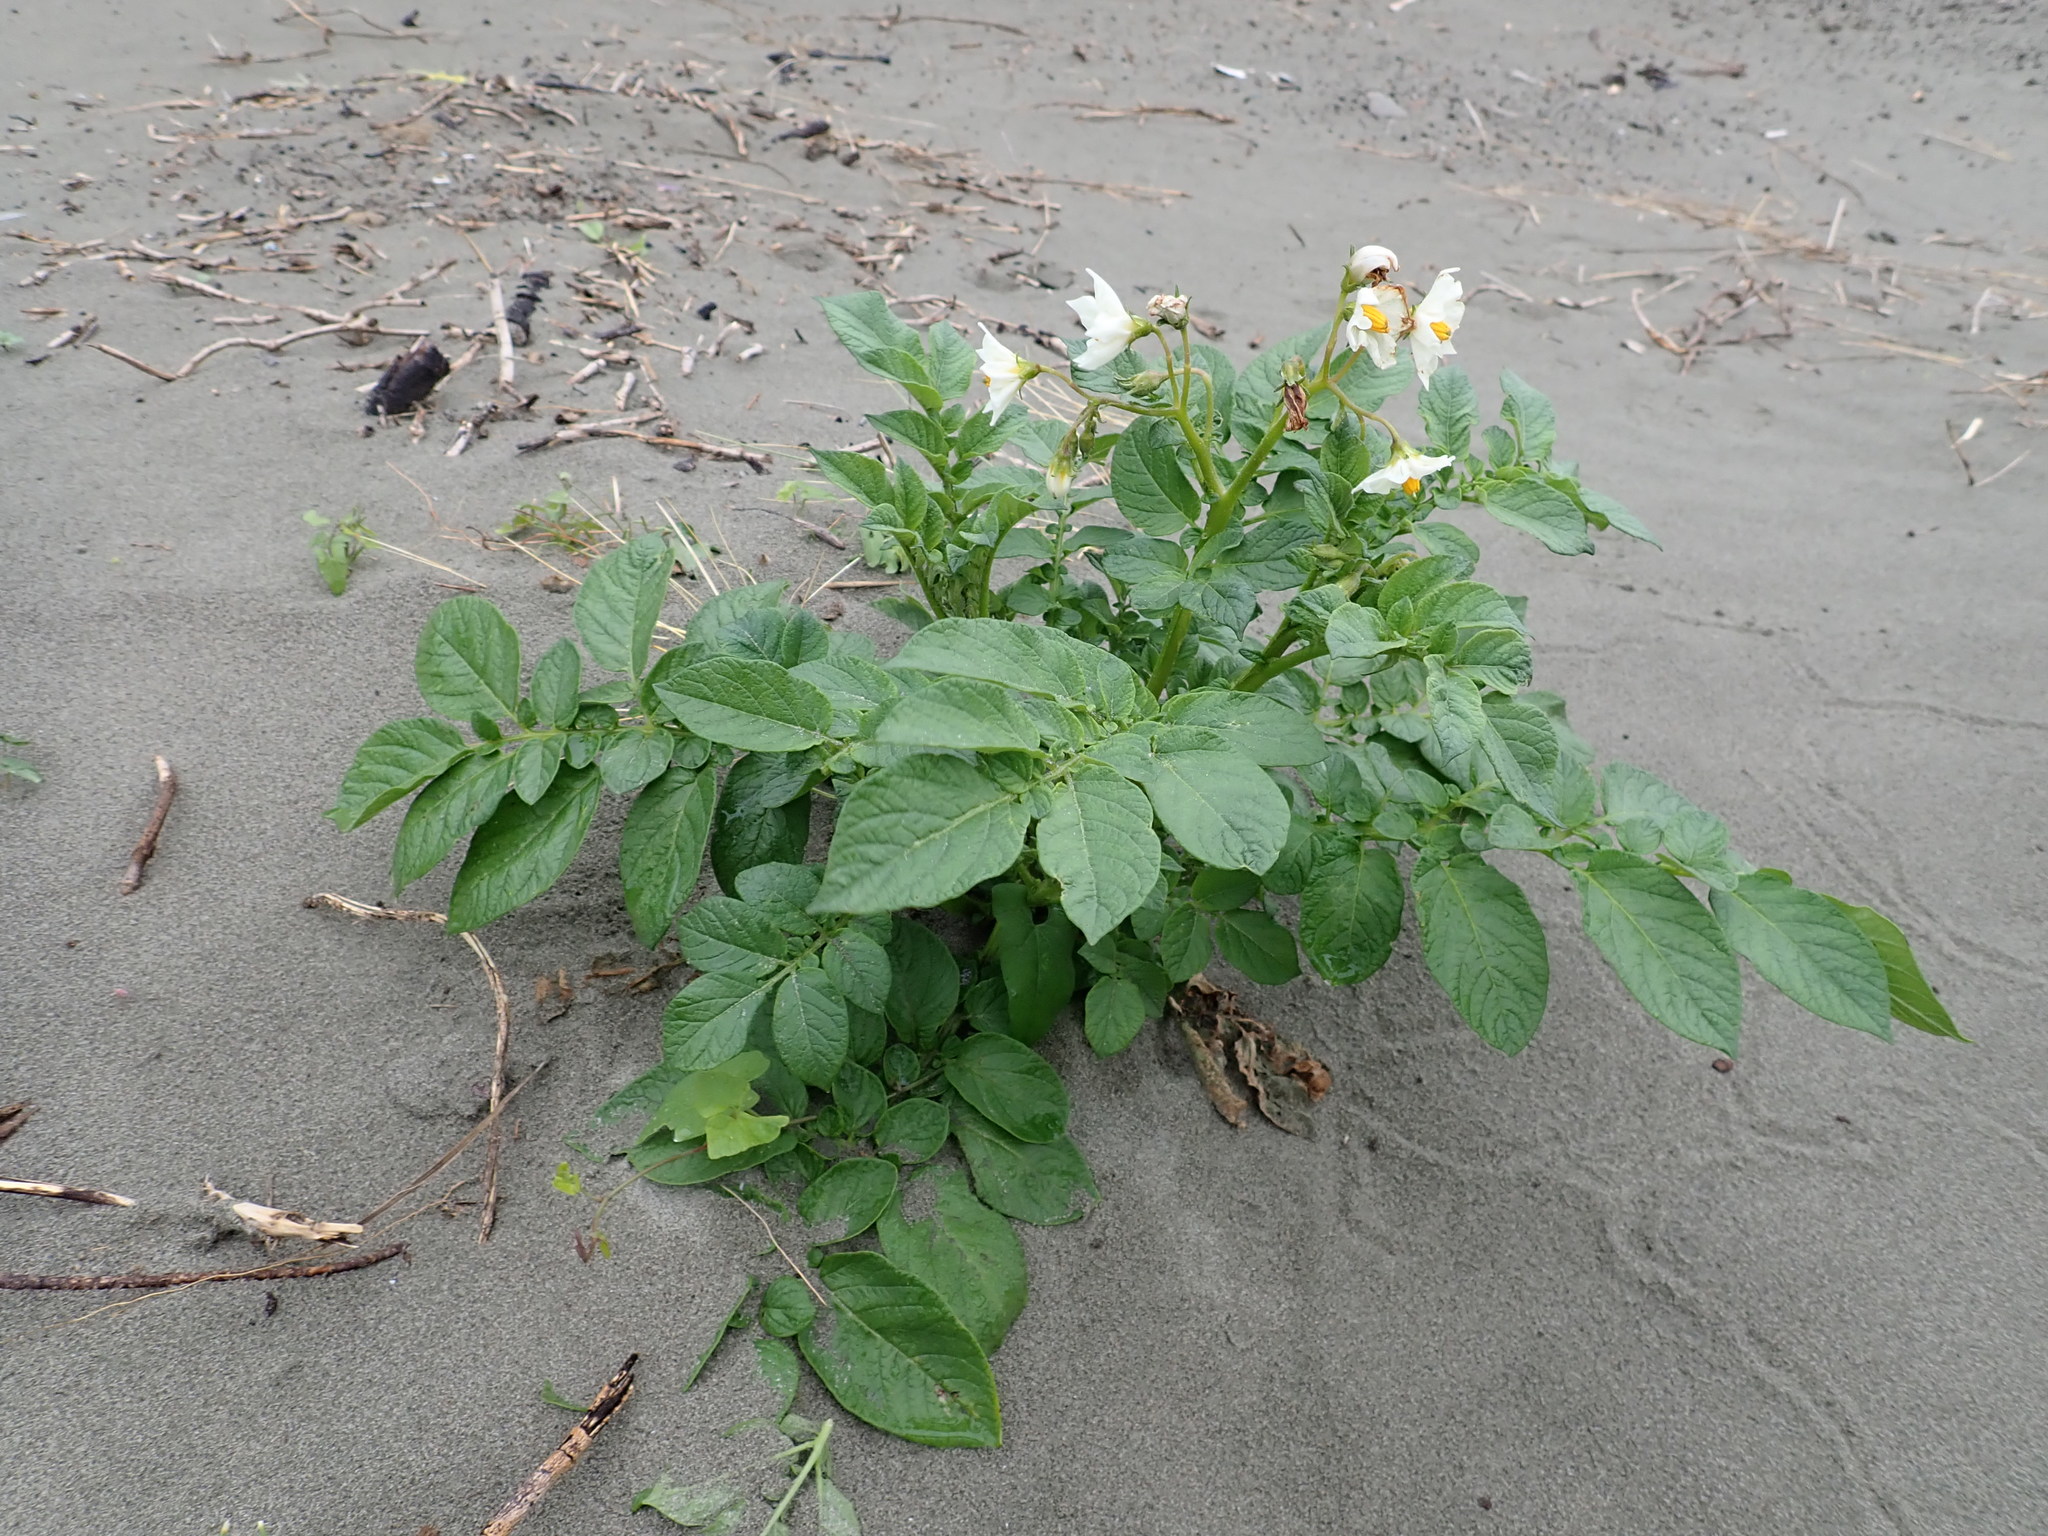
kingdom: Plantae
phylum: Tracheophyta
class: Magnoliopsida
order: Solanales
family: Solanaceae
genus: Solanum
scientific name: Solanum tuberosum
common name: Potato
